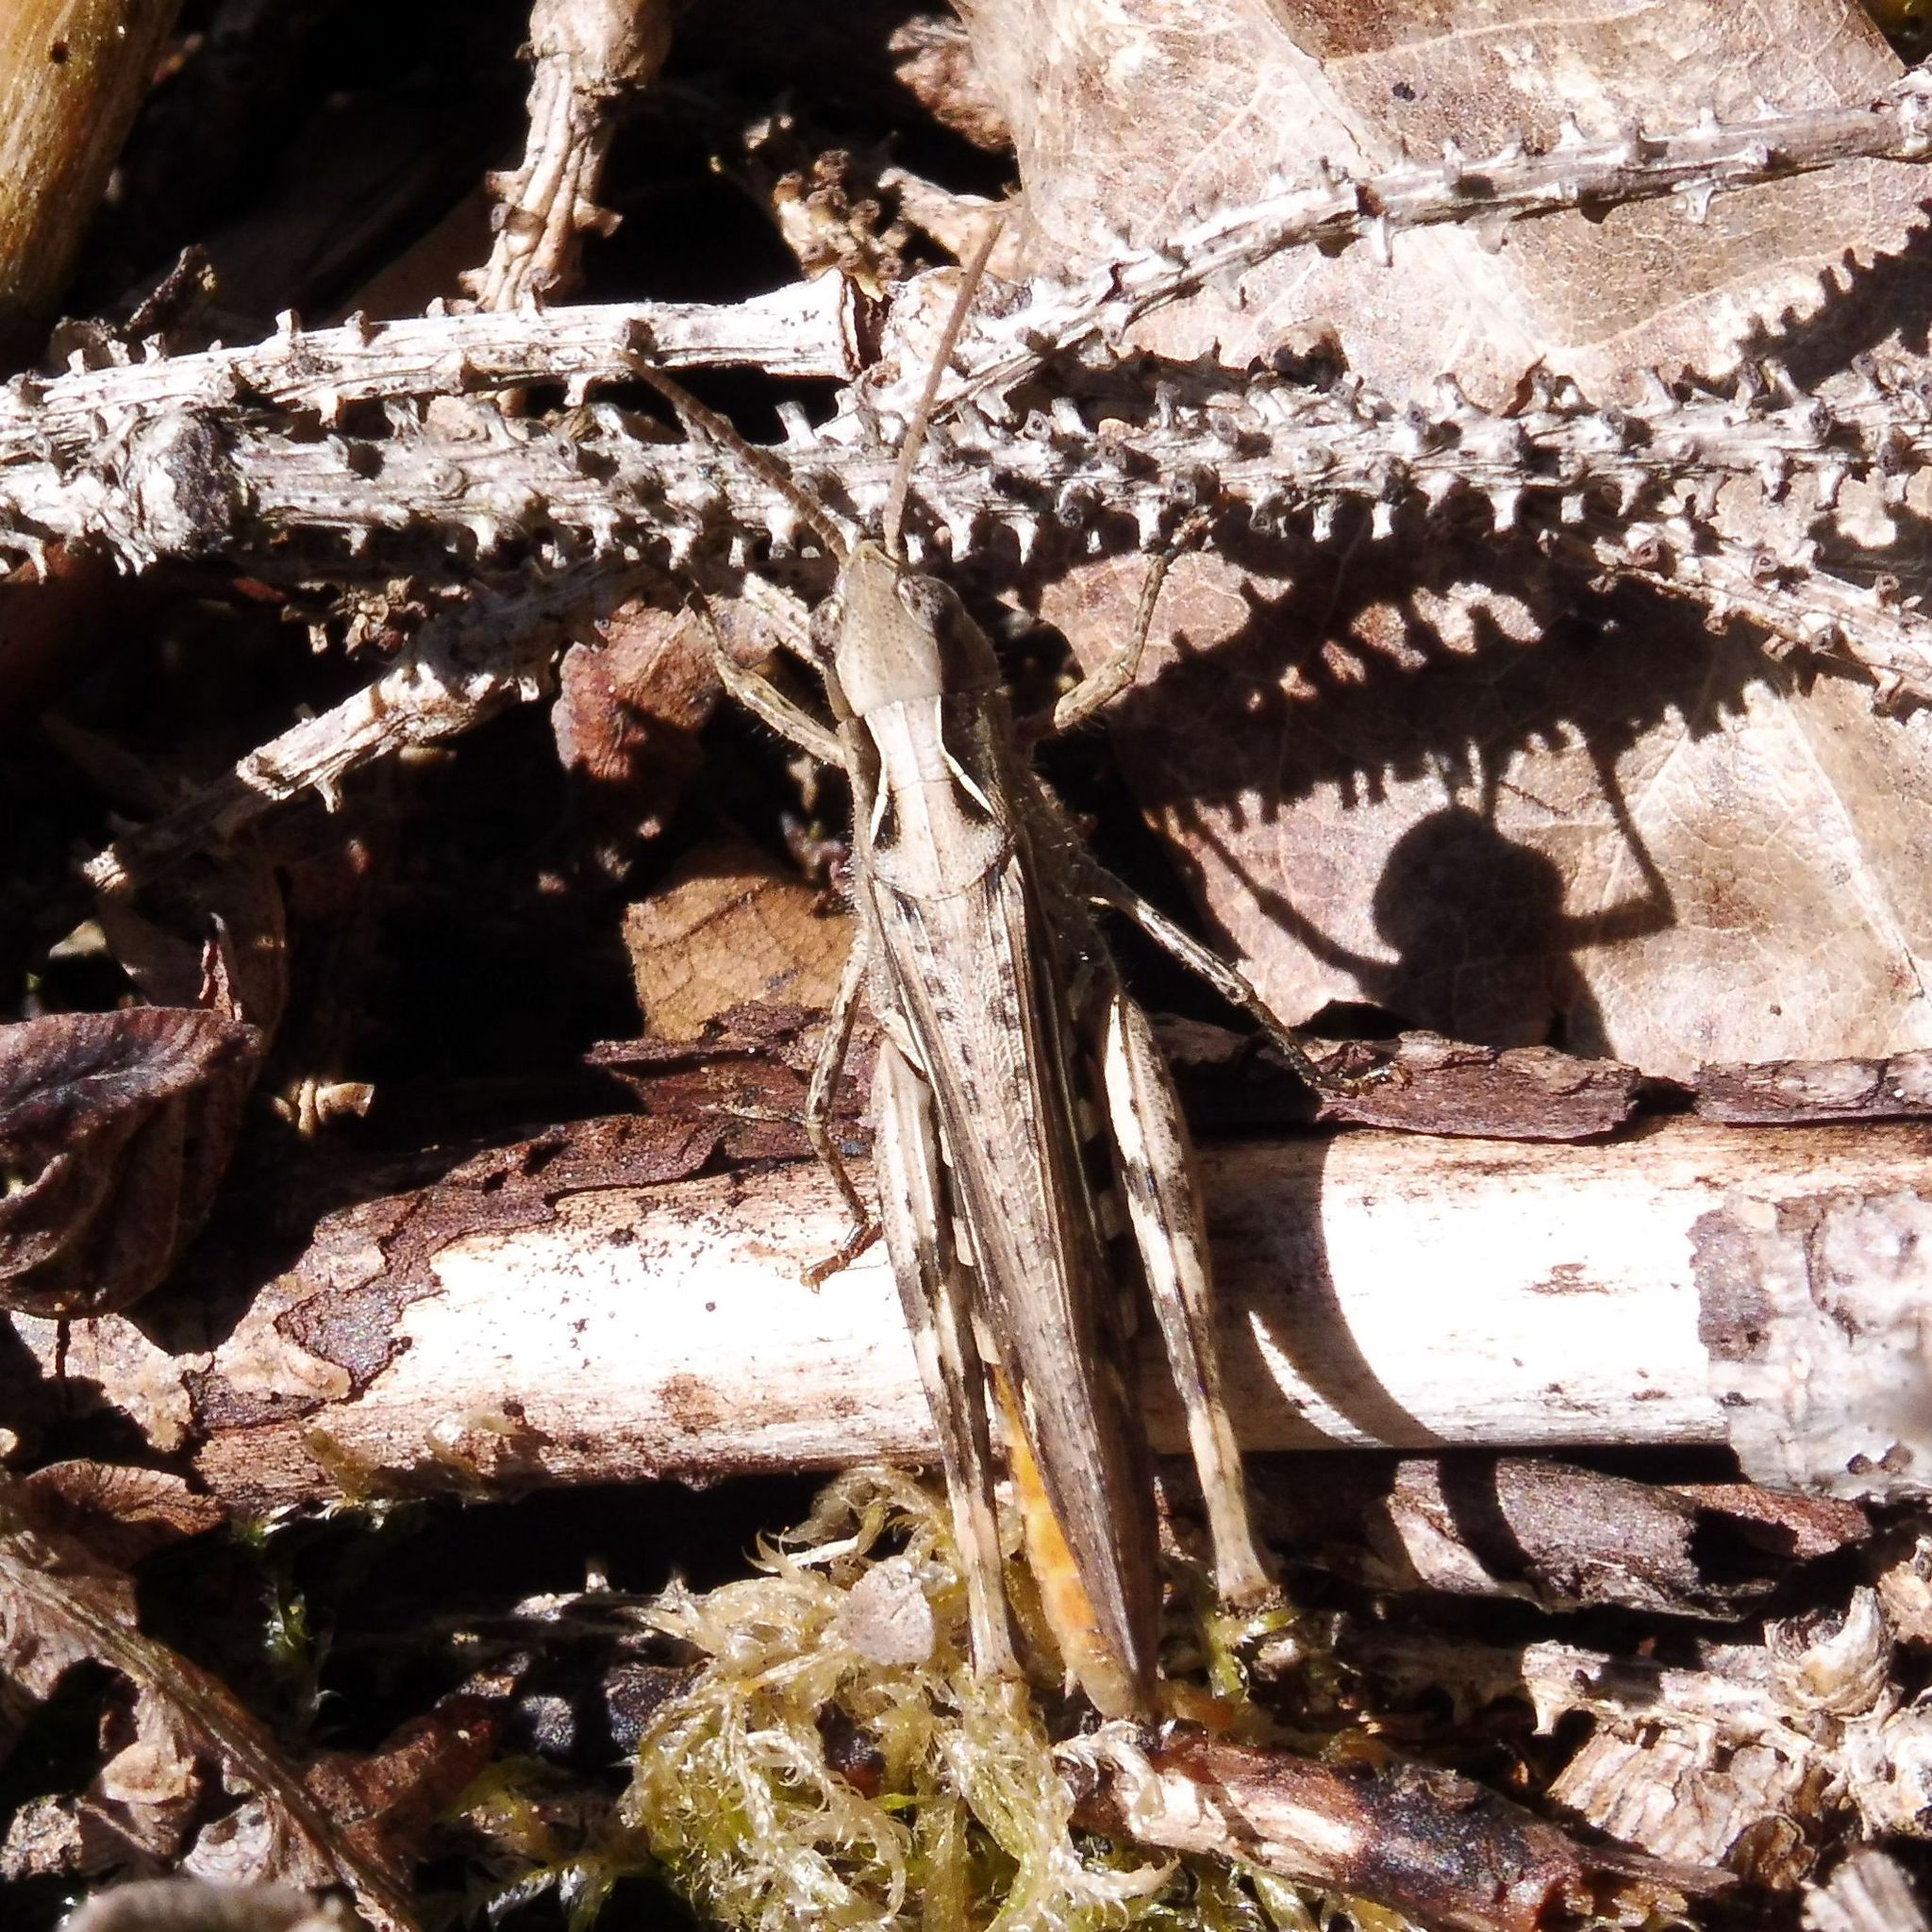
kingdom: Animalia
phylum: Arthropoda
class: Insecta
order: Orthoptera
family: Acrididae
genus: Chorthippus
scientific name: Chorthippus brunneus
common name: Field grasshopper
